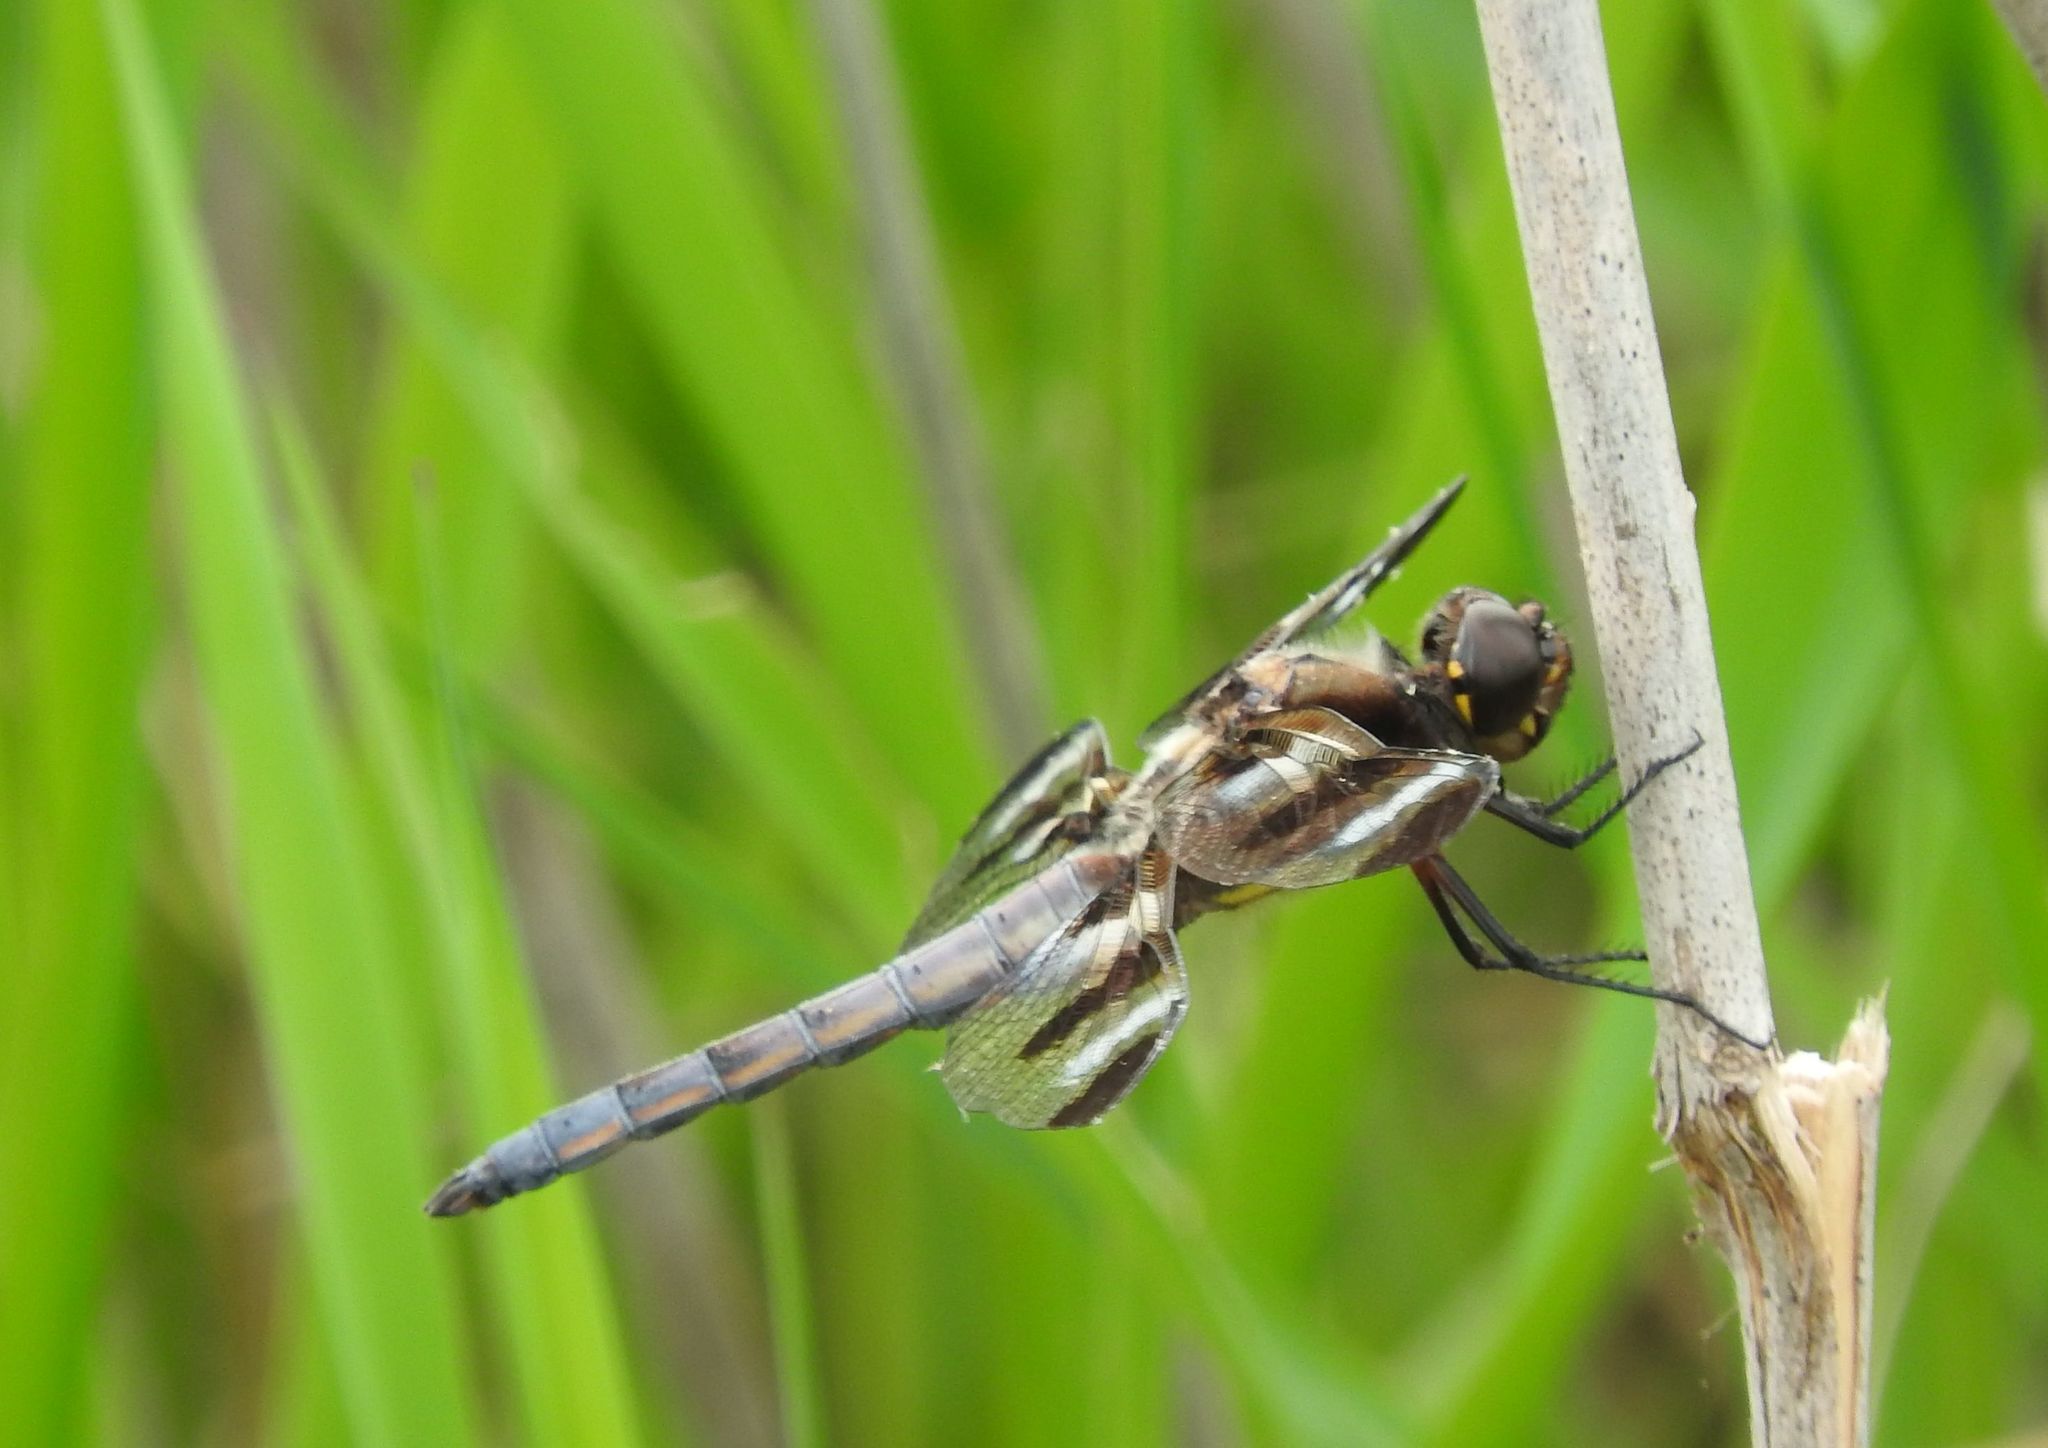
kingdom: Animalia
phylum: Arthropoda
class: Insecta
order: Odonata
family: Libellulidae
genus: Libellula
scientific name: Libellula pulchella
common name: Twelve-spotted skimmer
